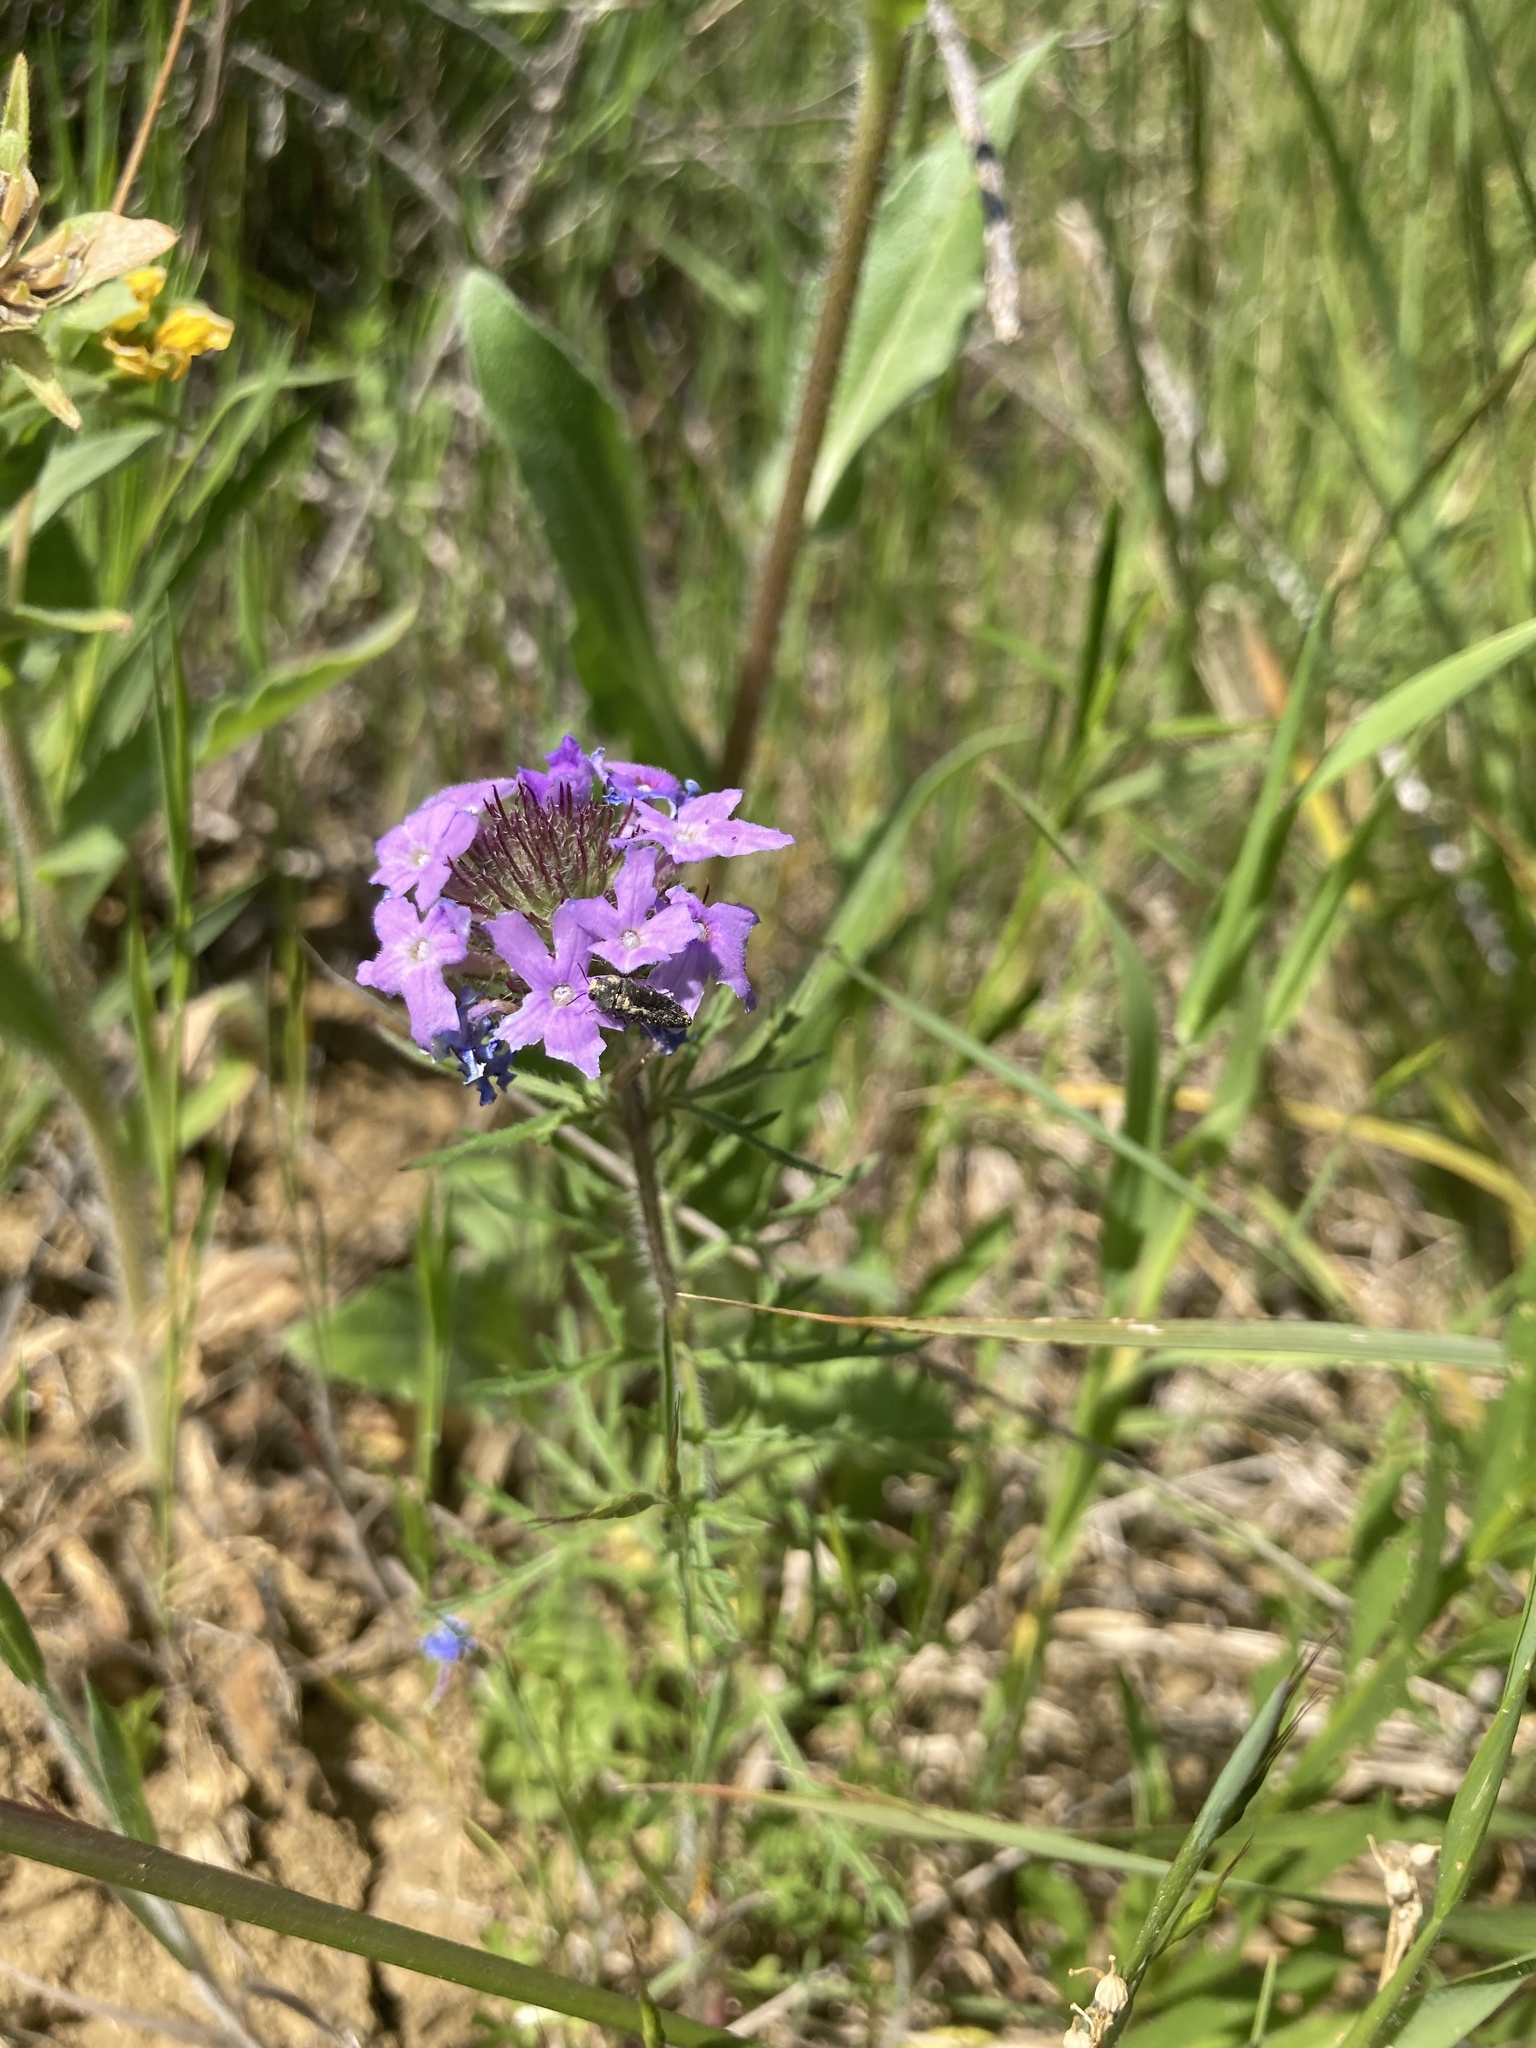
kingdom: Plantae
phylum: Tracheophyta
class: Magnoliopsida
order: Lamiales
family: Verbenaceae
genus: Verbena
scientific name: Verbena bipinnatifida
